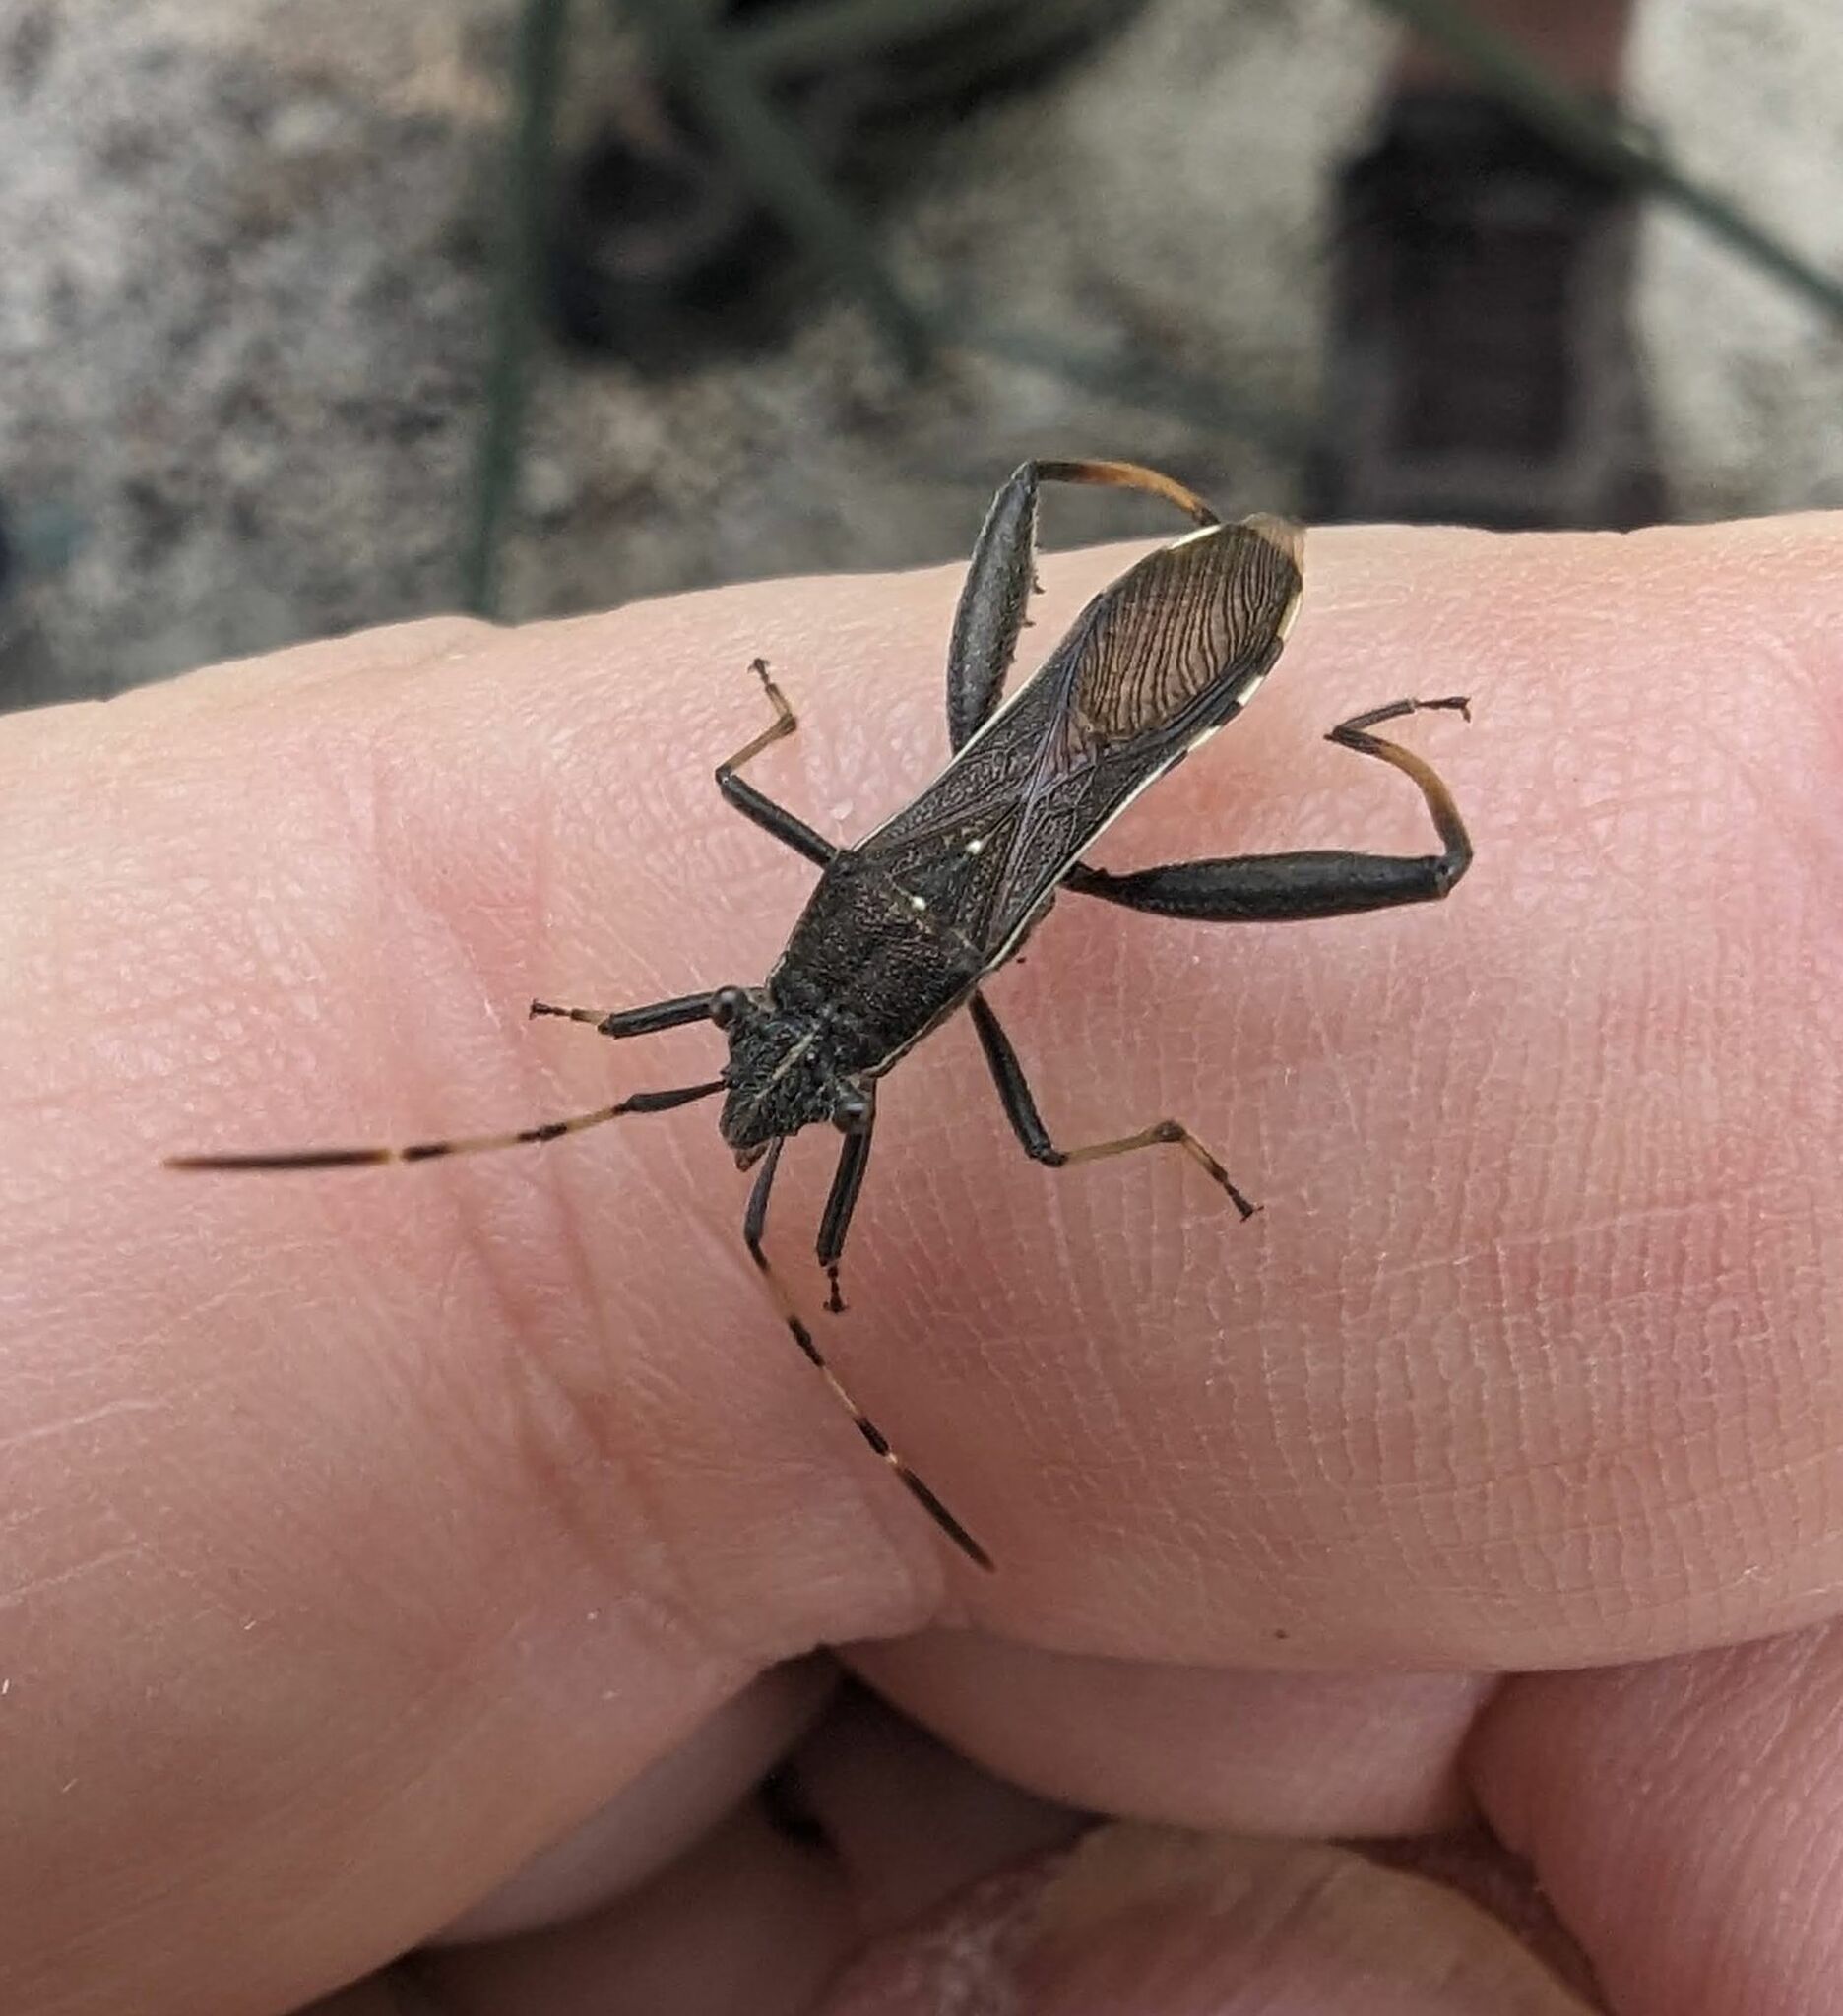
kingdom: Animalia
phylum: Arthropoda
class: Insecta
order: Hemiptera
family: Alydidae
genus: Camptopus
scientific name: Camptopus lateralis
